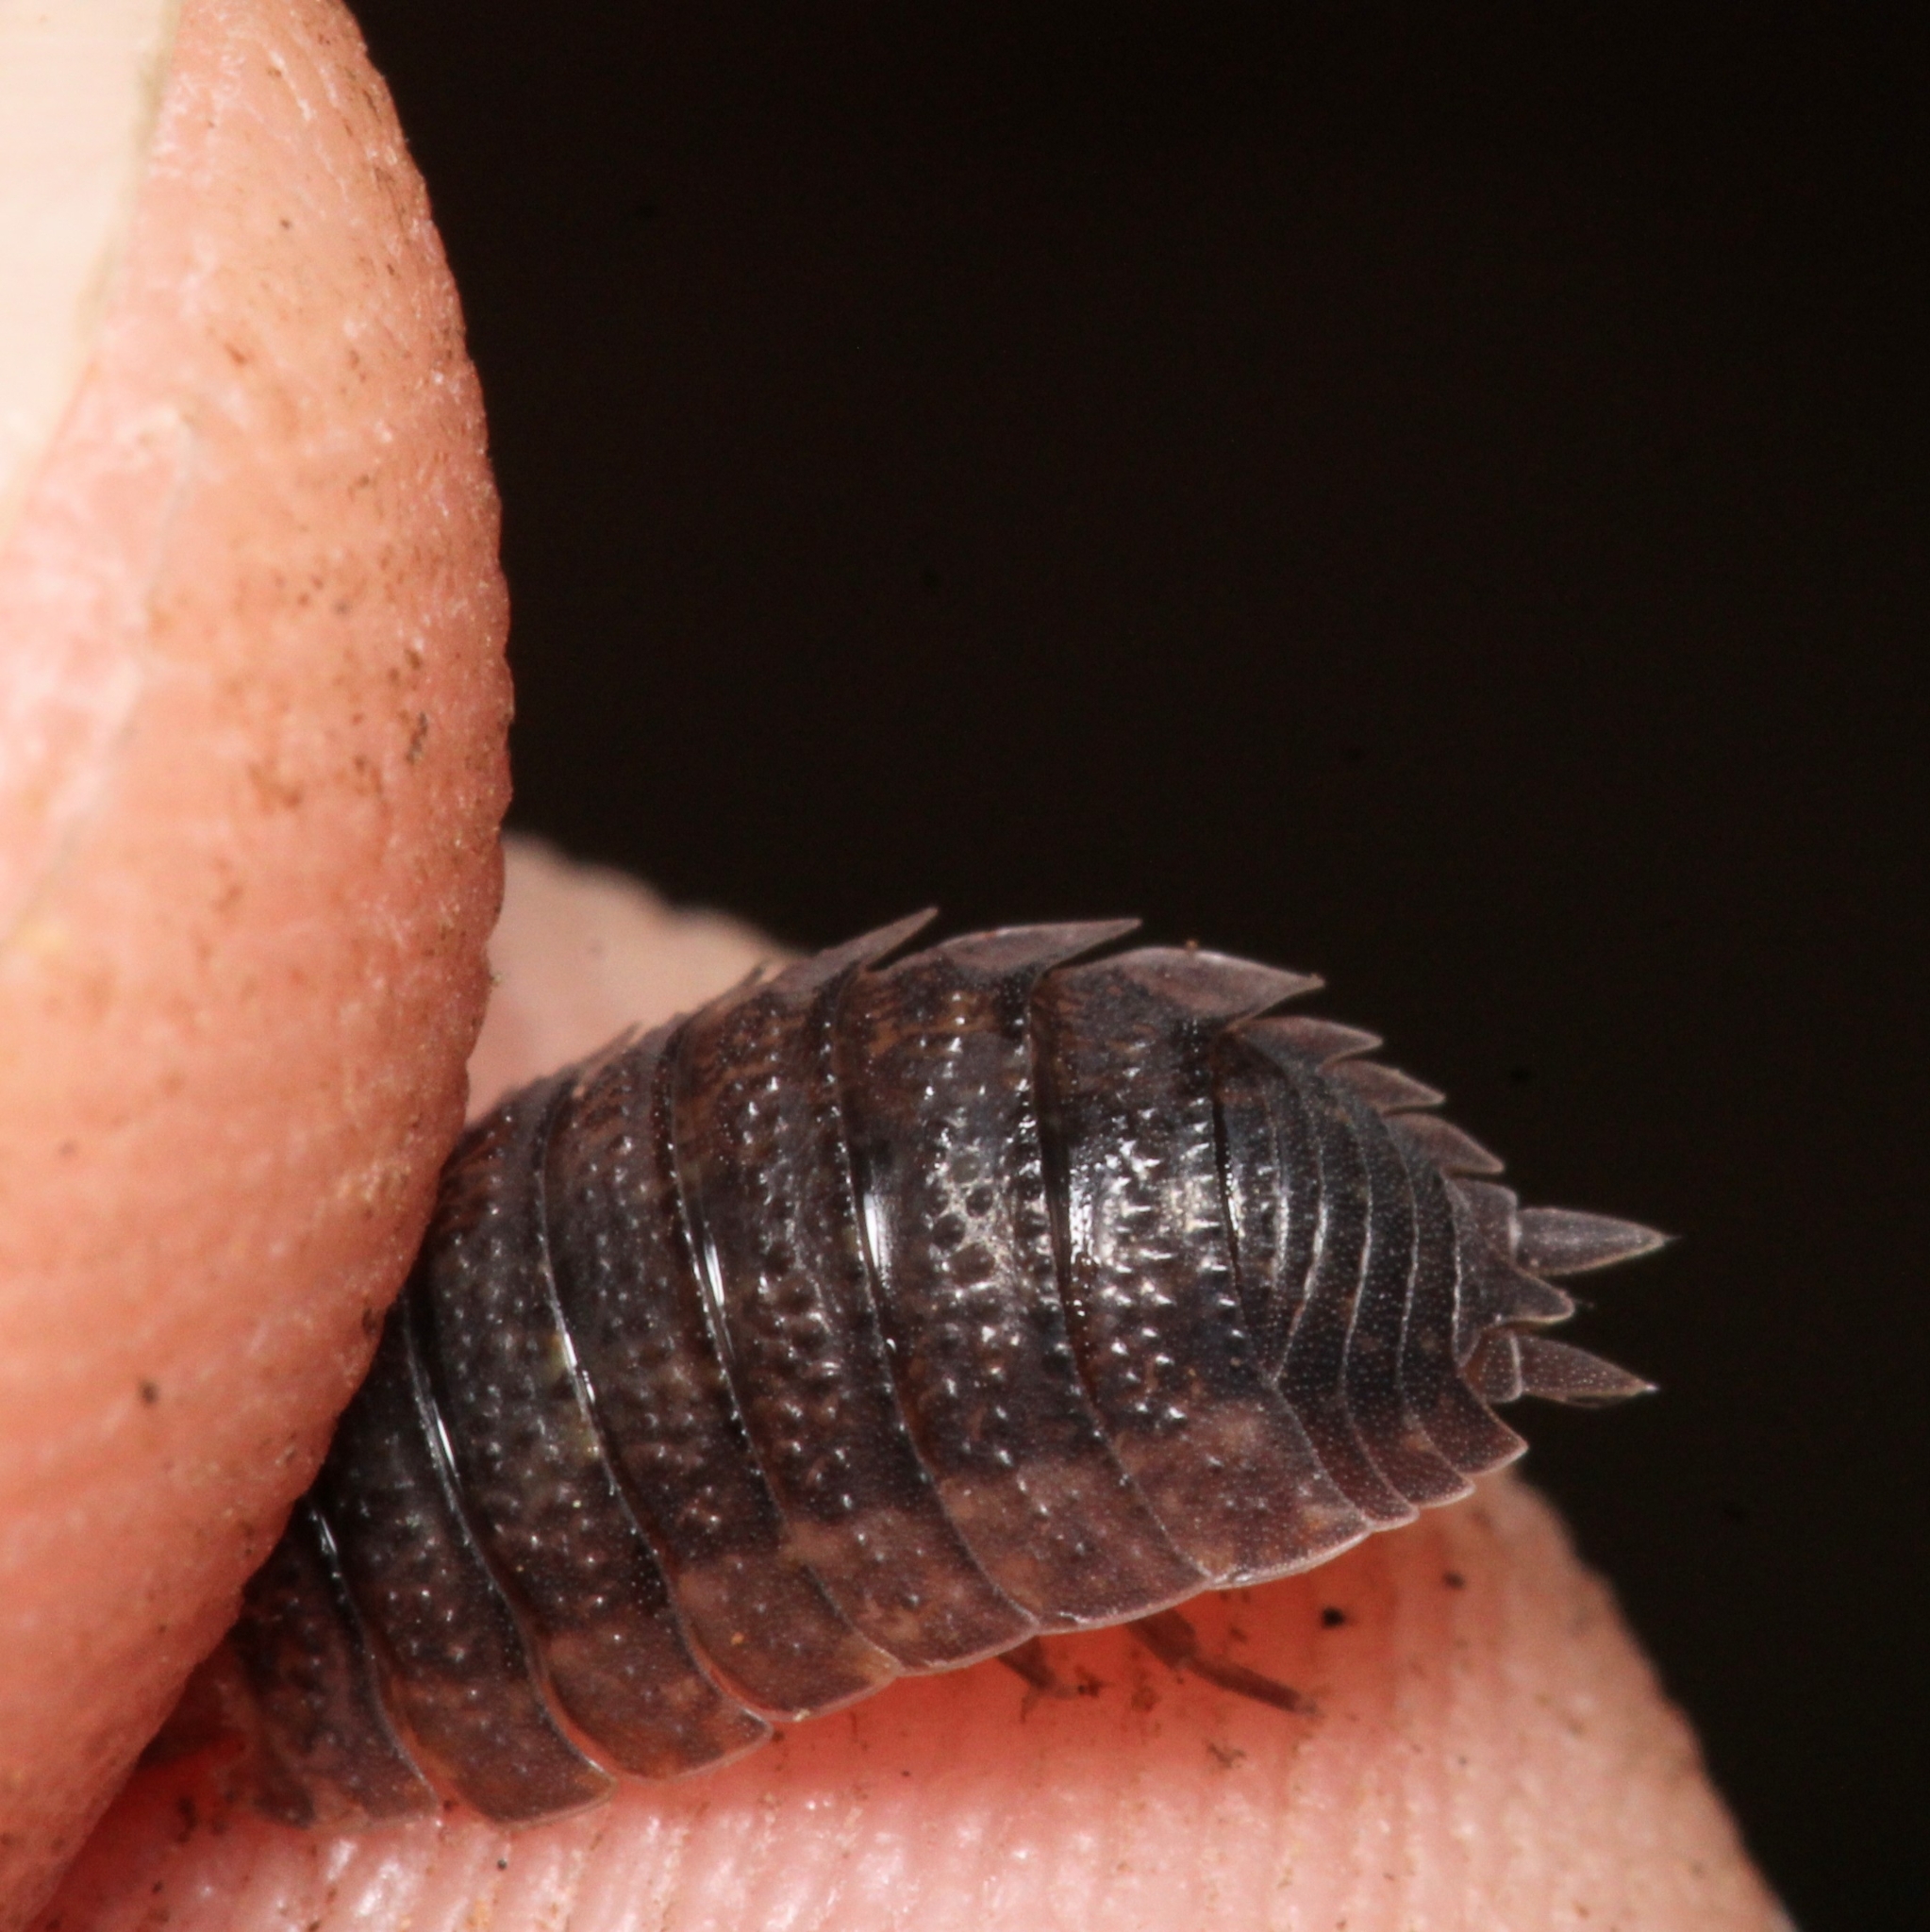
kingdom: Animalia
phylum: Arthropoda
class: Malacostraca
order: Isopoda
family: Porcellionidae
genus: Porcellio
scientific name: Porcellio scaber
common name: Common rough woodlouse
